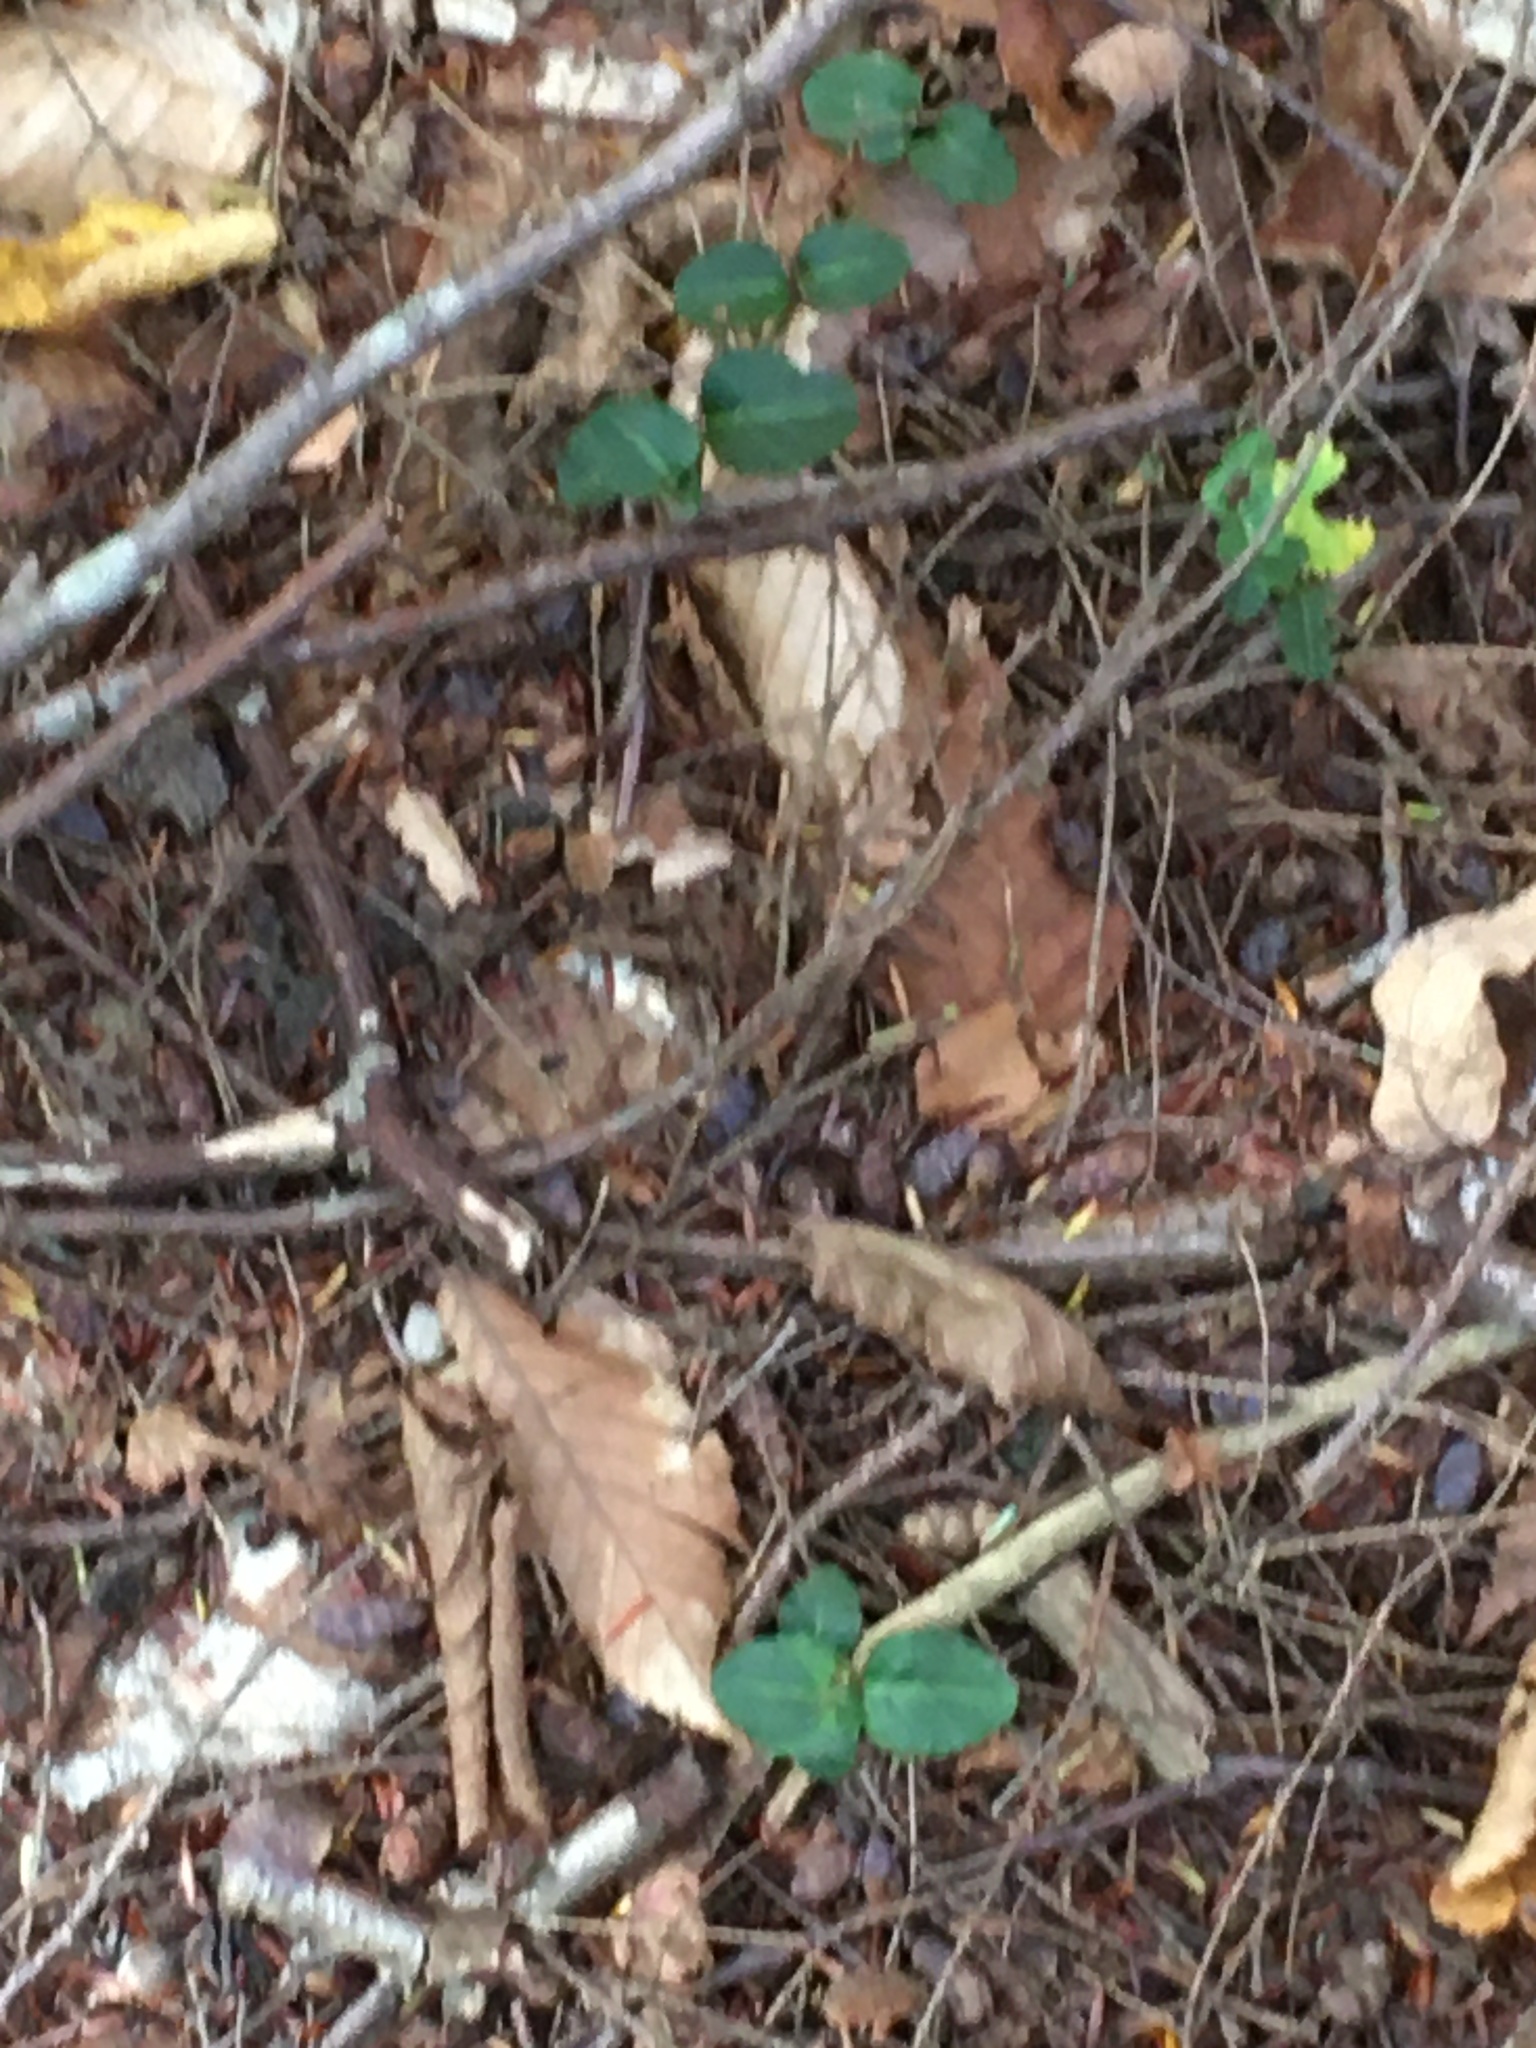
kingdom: Plantae
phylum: Tracheophyta
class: Magnoliopsida
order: Gentianales
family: Rubiaceae
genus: Mitchella
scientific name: Mitchella repens
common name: Partridge-berry
